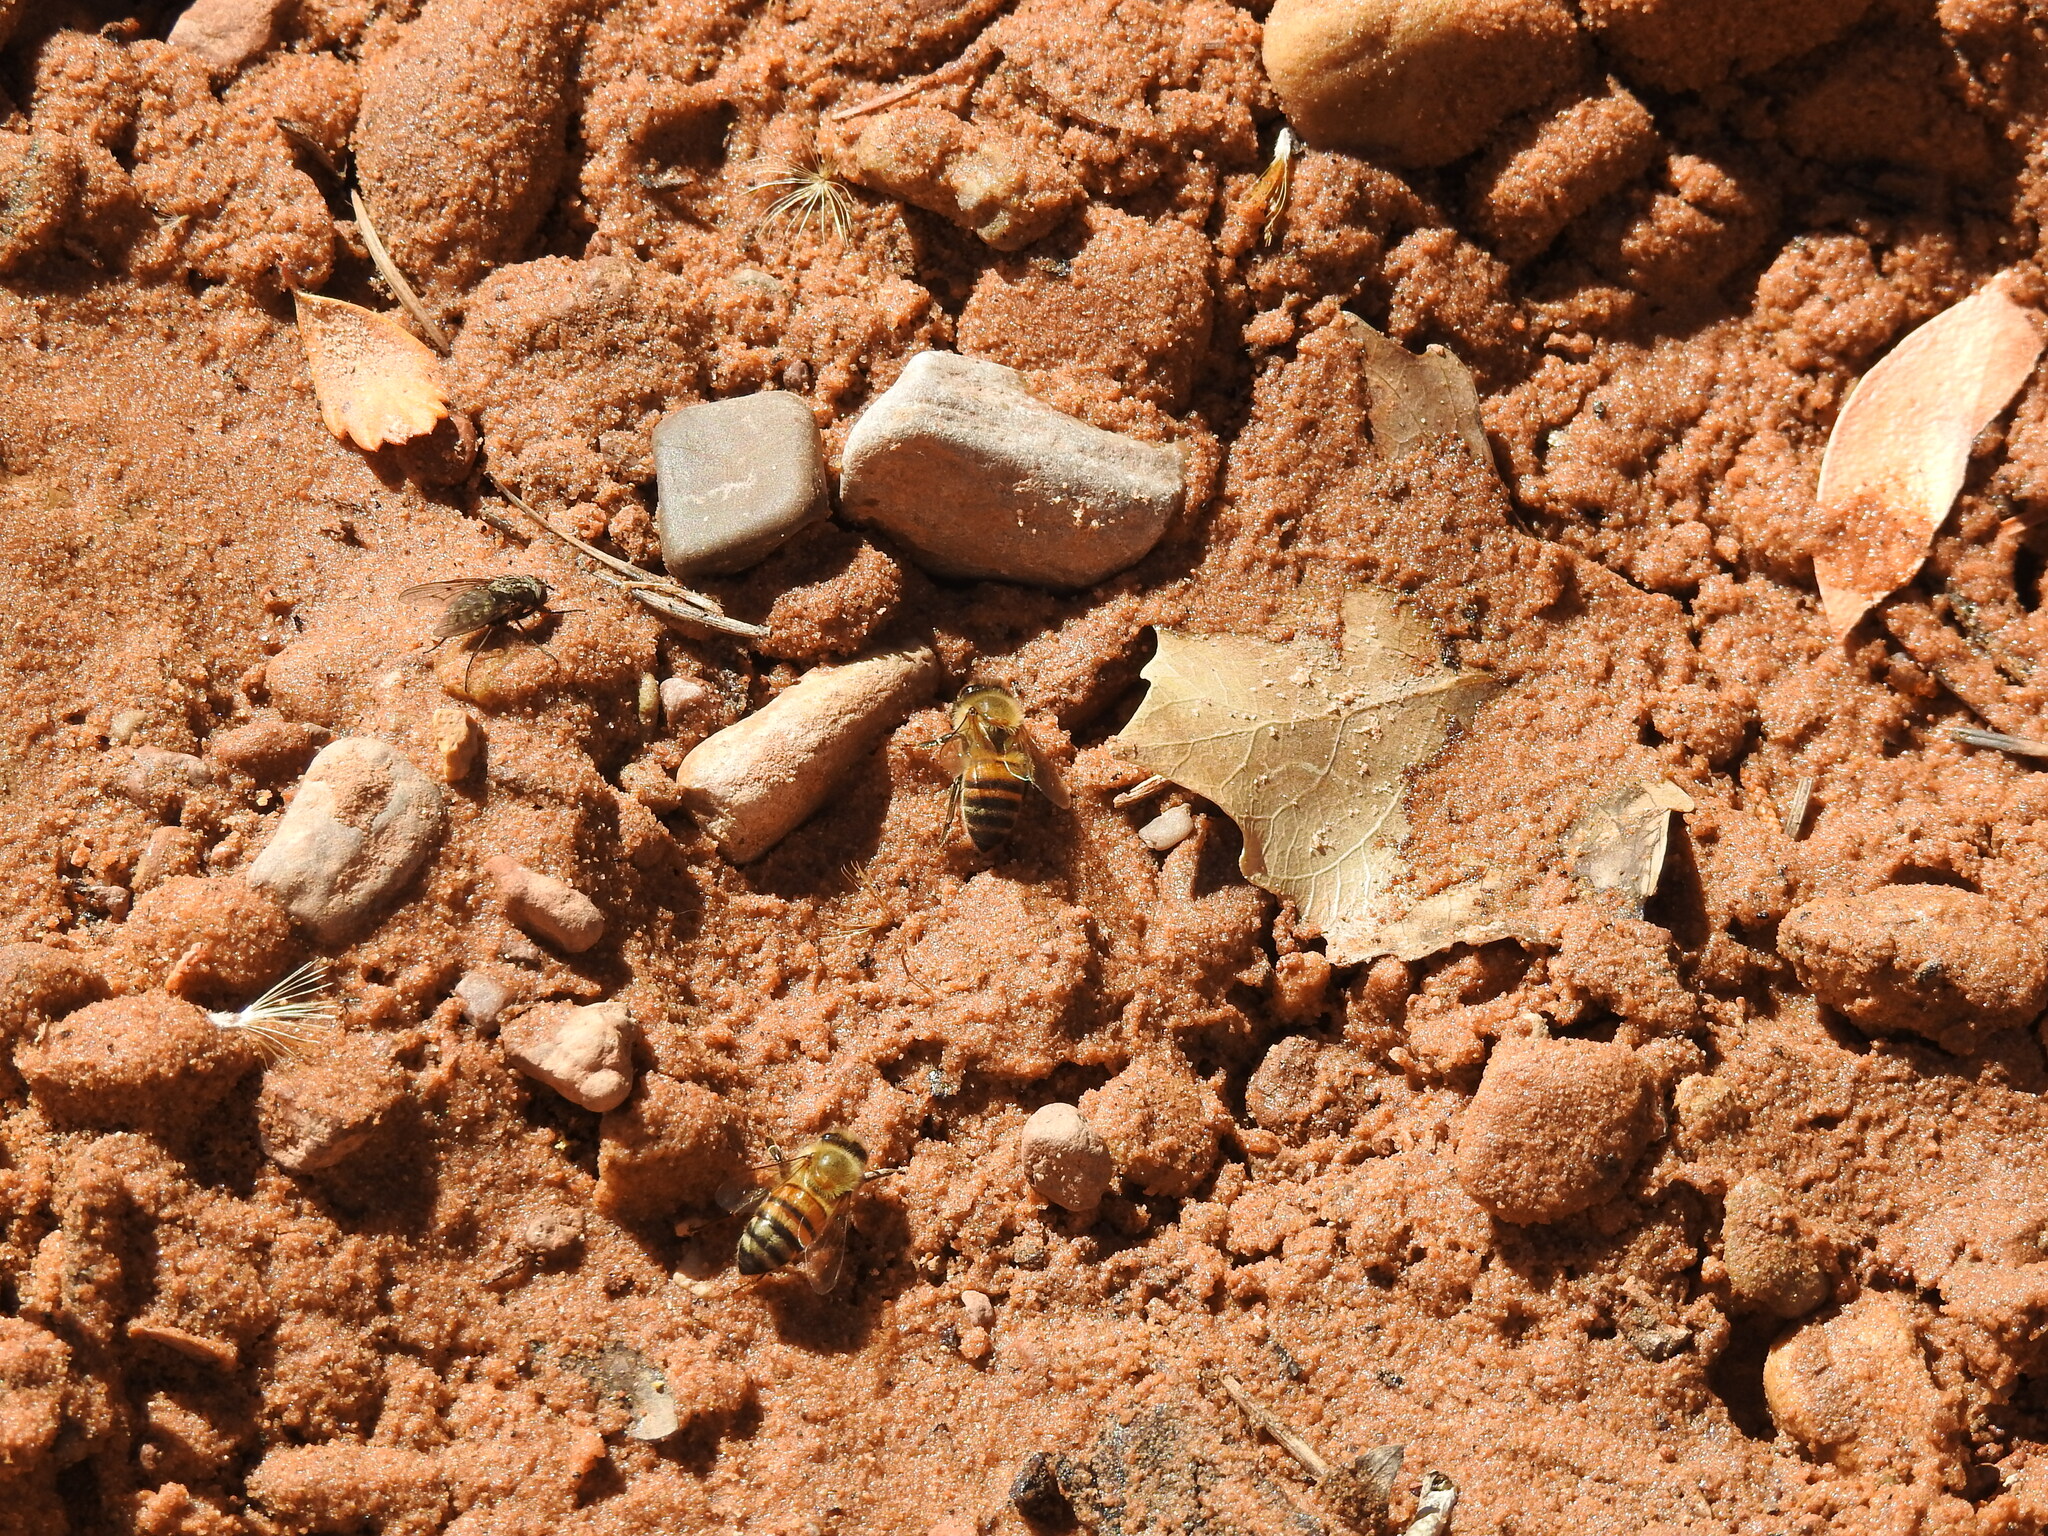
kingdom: Animalia
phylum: Arthropoda
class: Insecta
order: Hymenoptera
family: Apidae
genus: Apis
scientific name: Apis mellifera
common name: Honey bee
